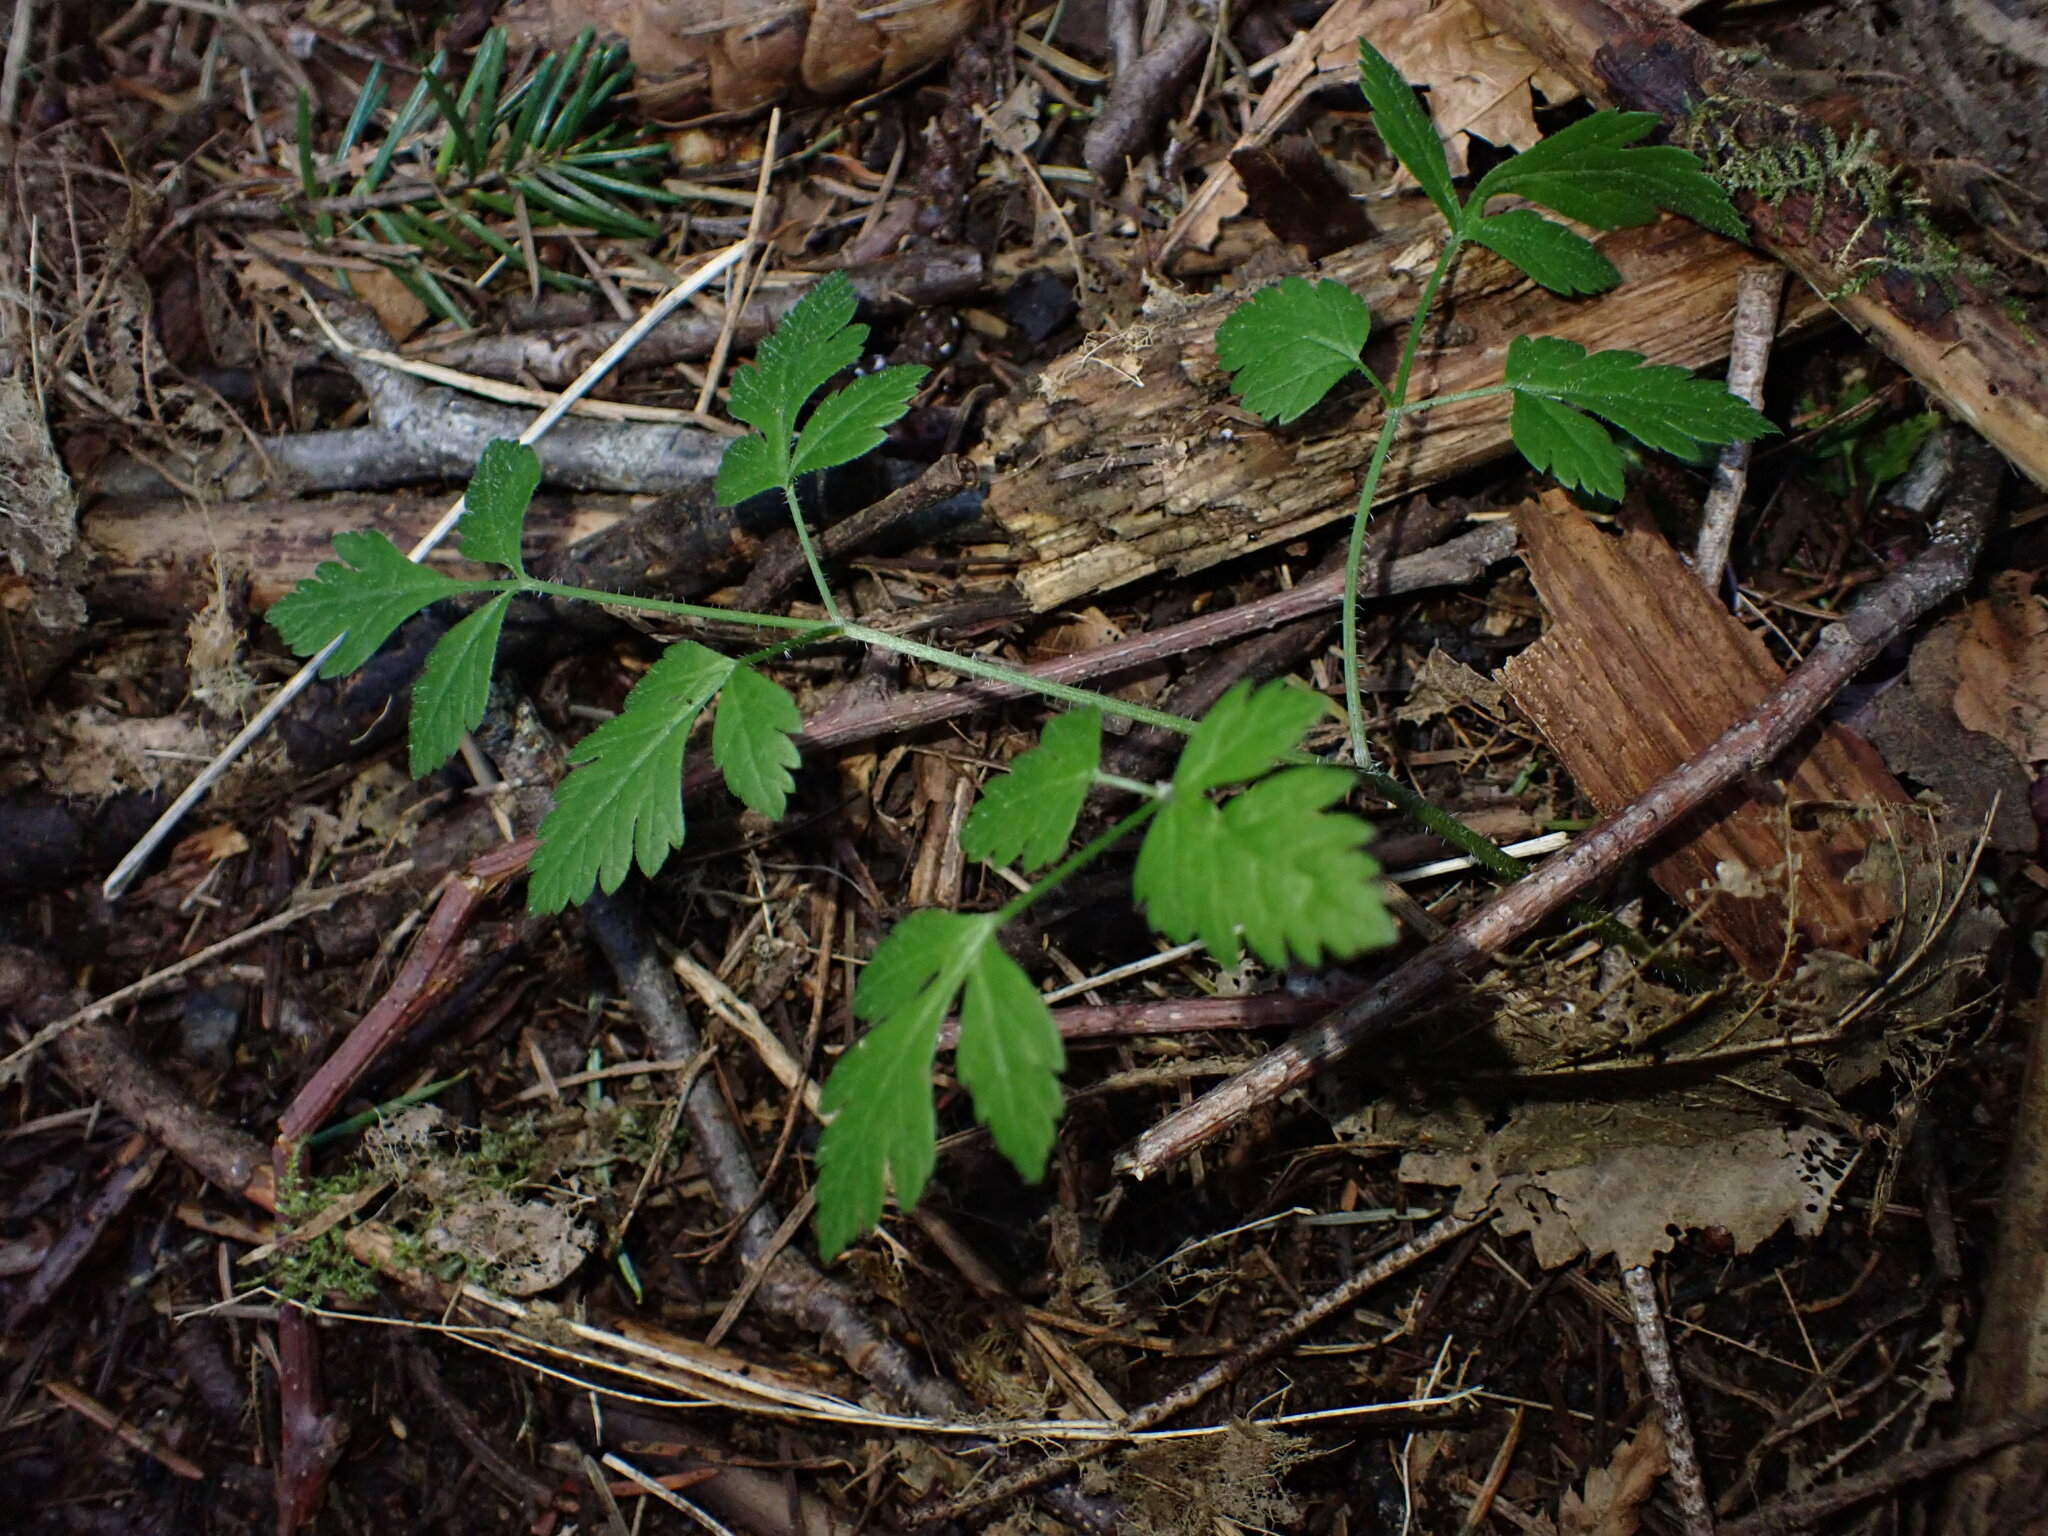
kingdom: Plantae
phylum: Tracheophyta
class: Magnoliopsida
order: Apiales
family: Apiaceae
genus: Osmorhiza
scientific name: Osmorhiza berteroi
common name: Mountain sweet cicely
